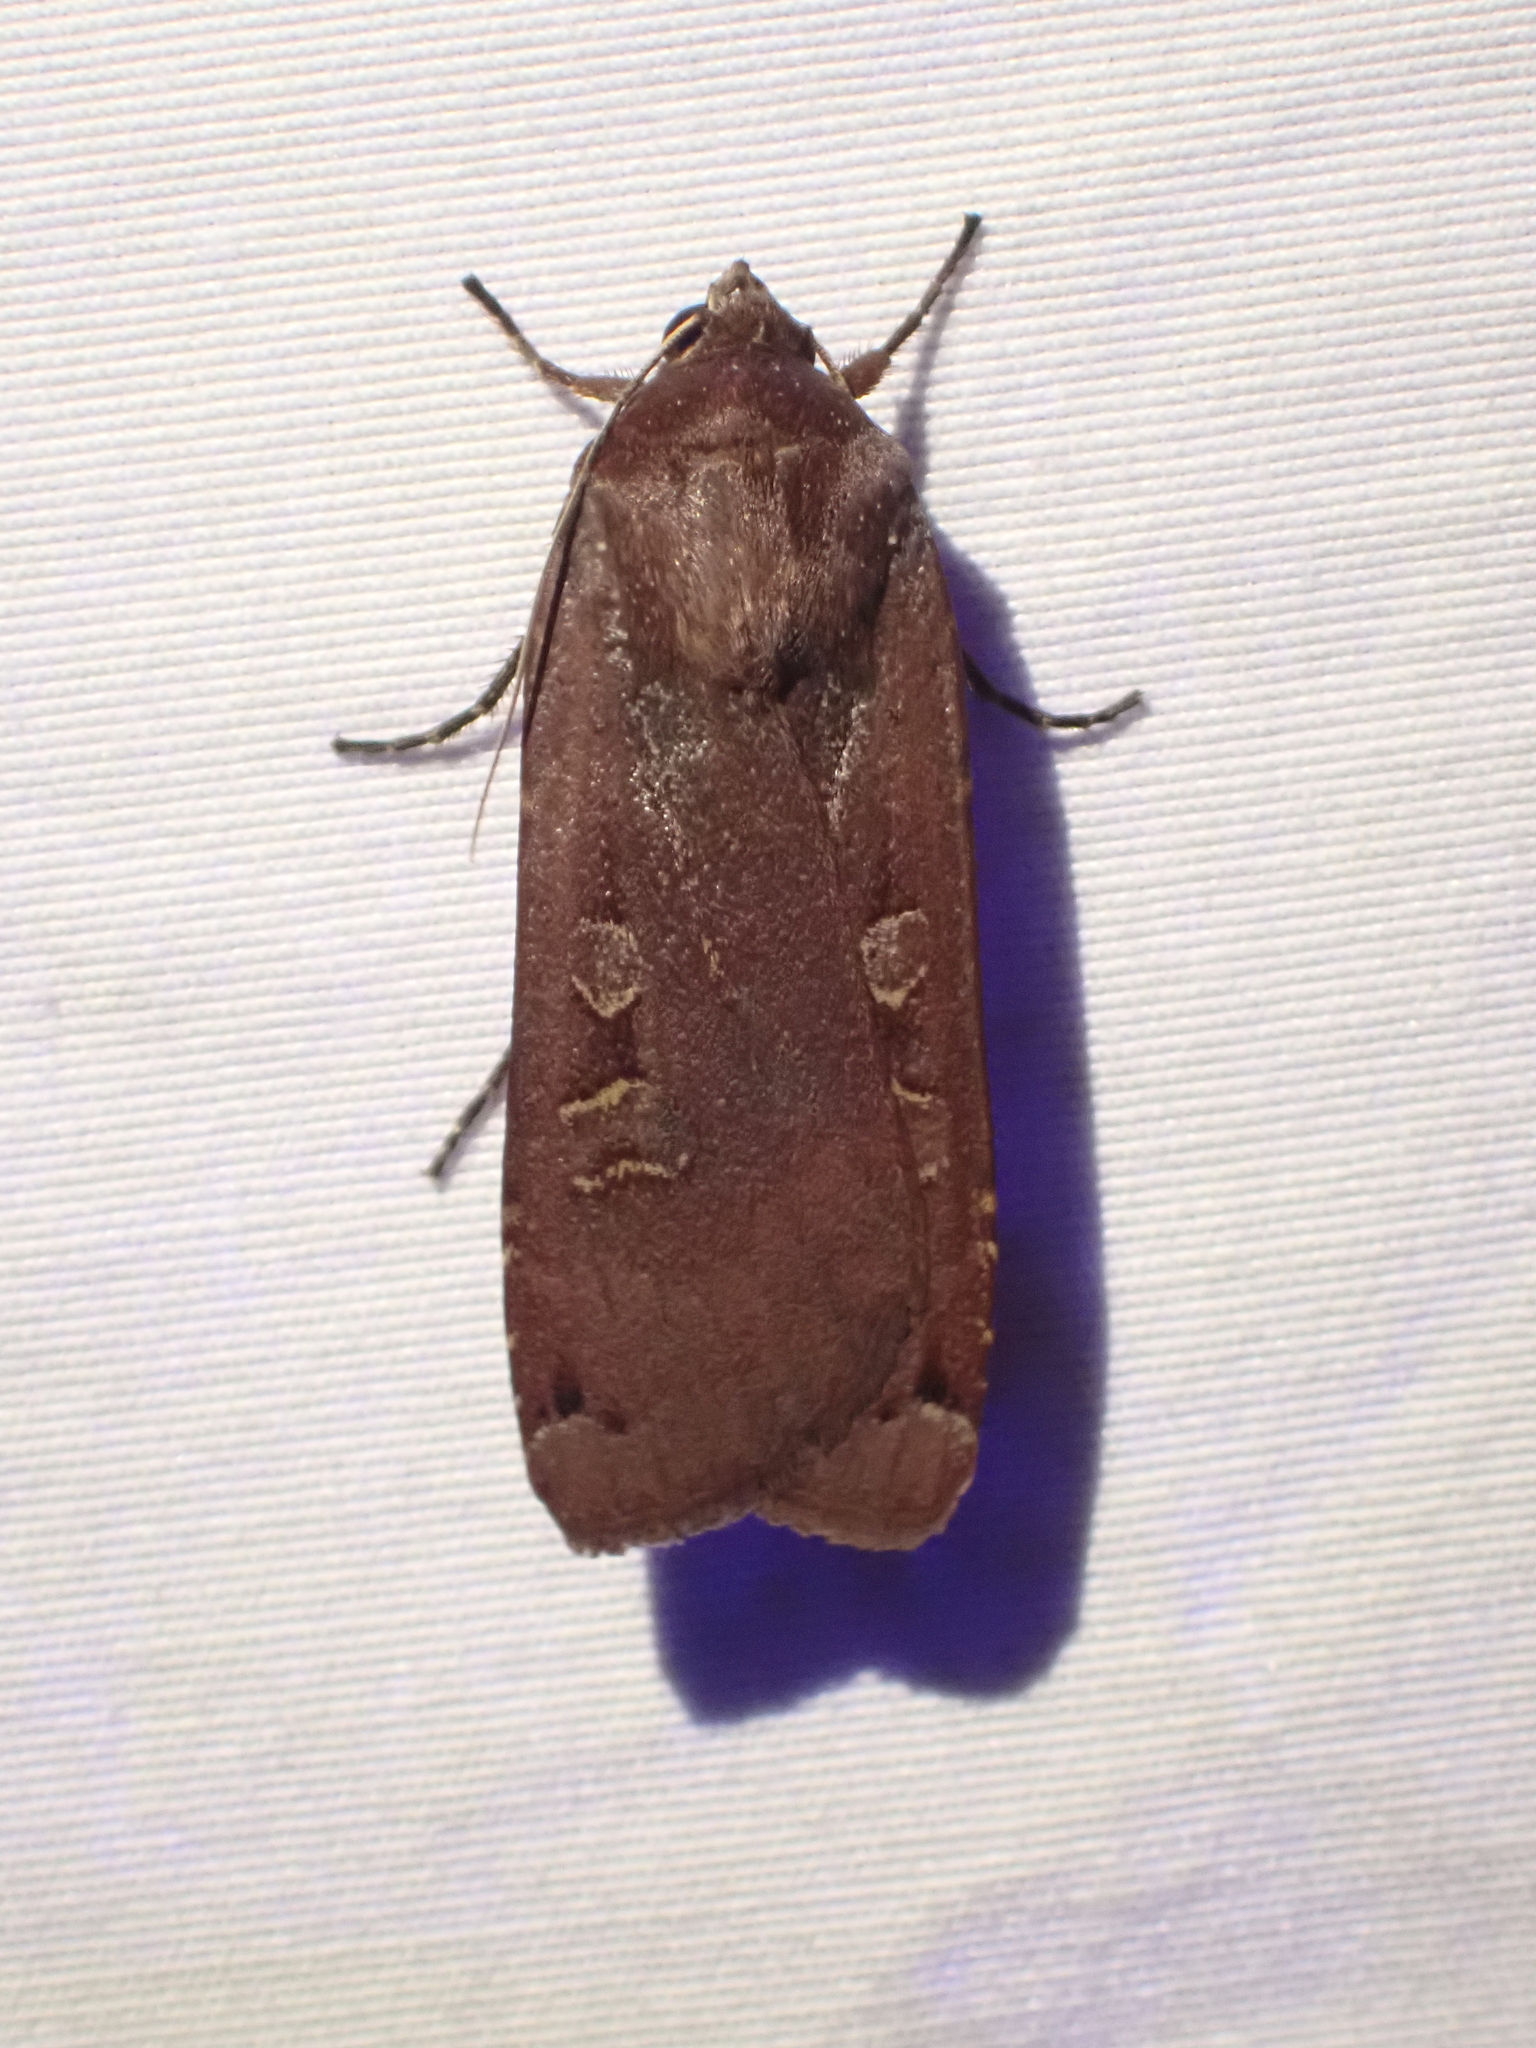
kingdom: Animalia
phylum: Arthropoda
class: Insecta
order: Lepidoptera
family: Noctuidae
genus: Noctua
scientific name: Noctua pronuba
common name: Large yellow underwing
